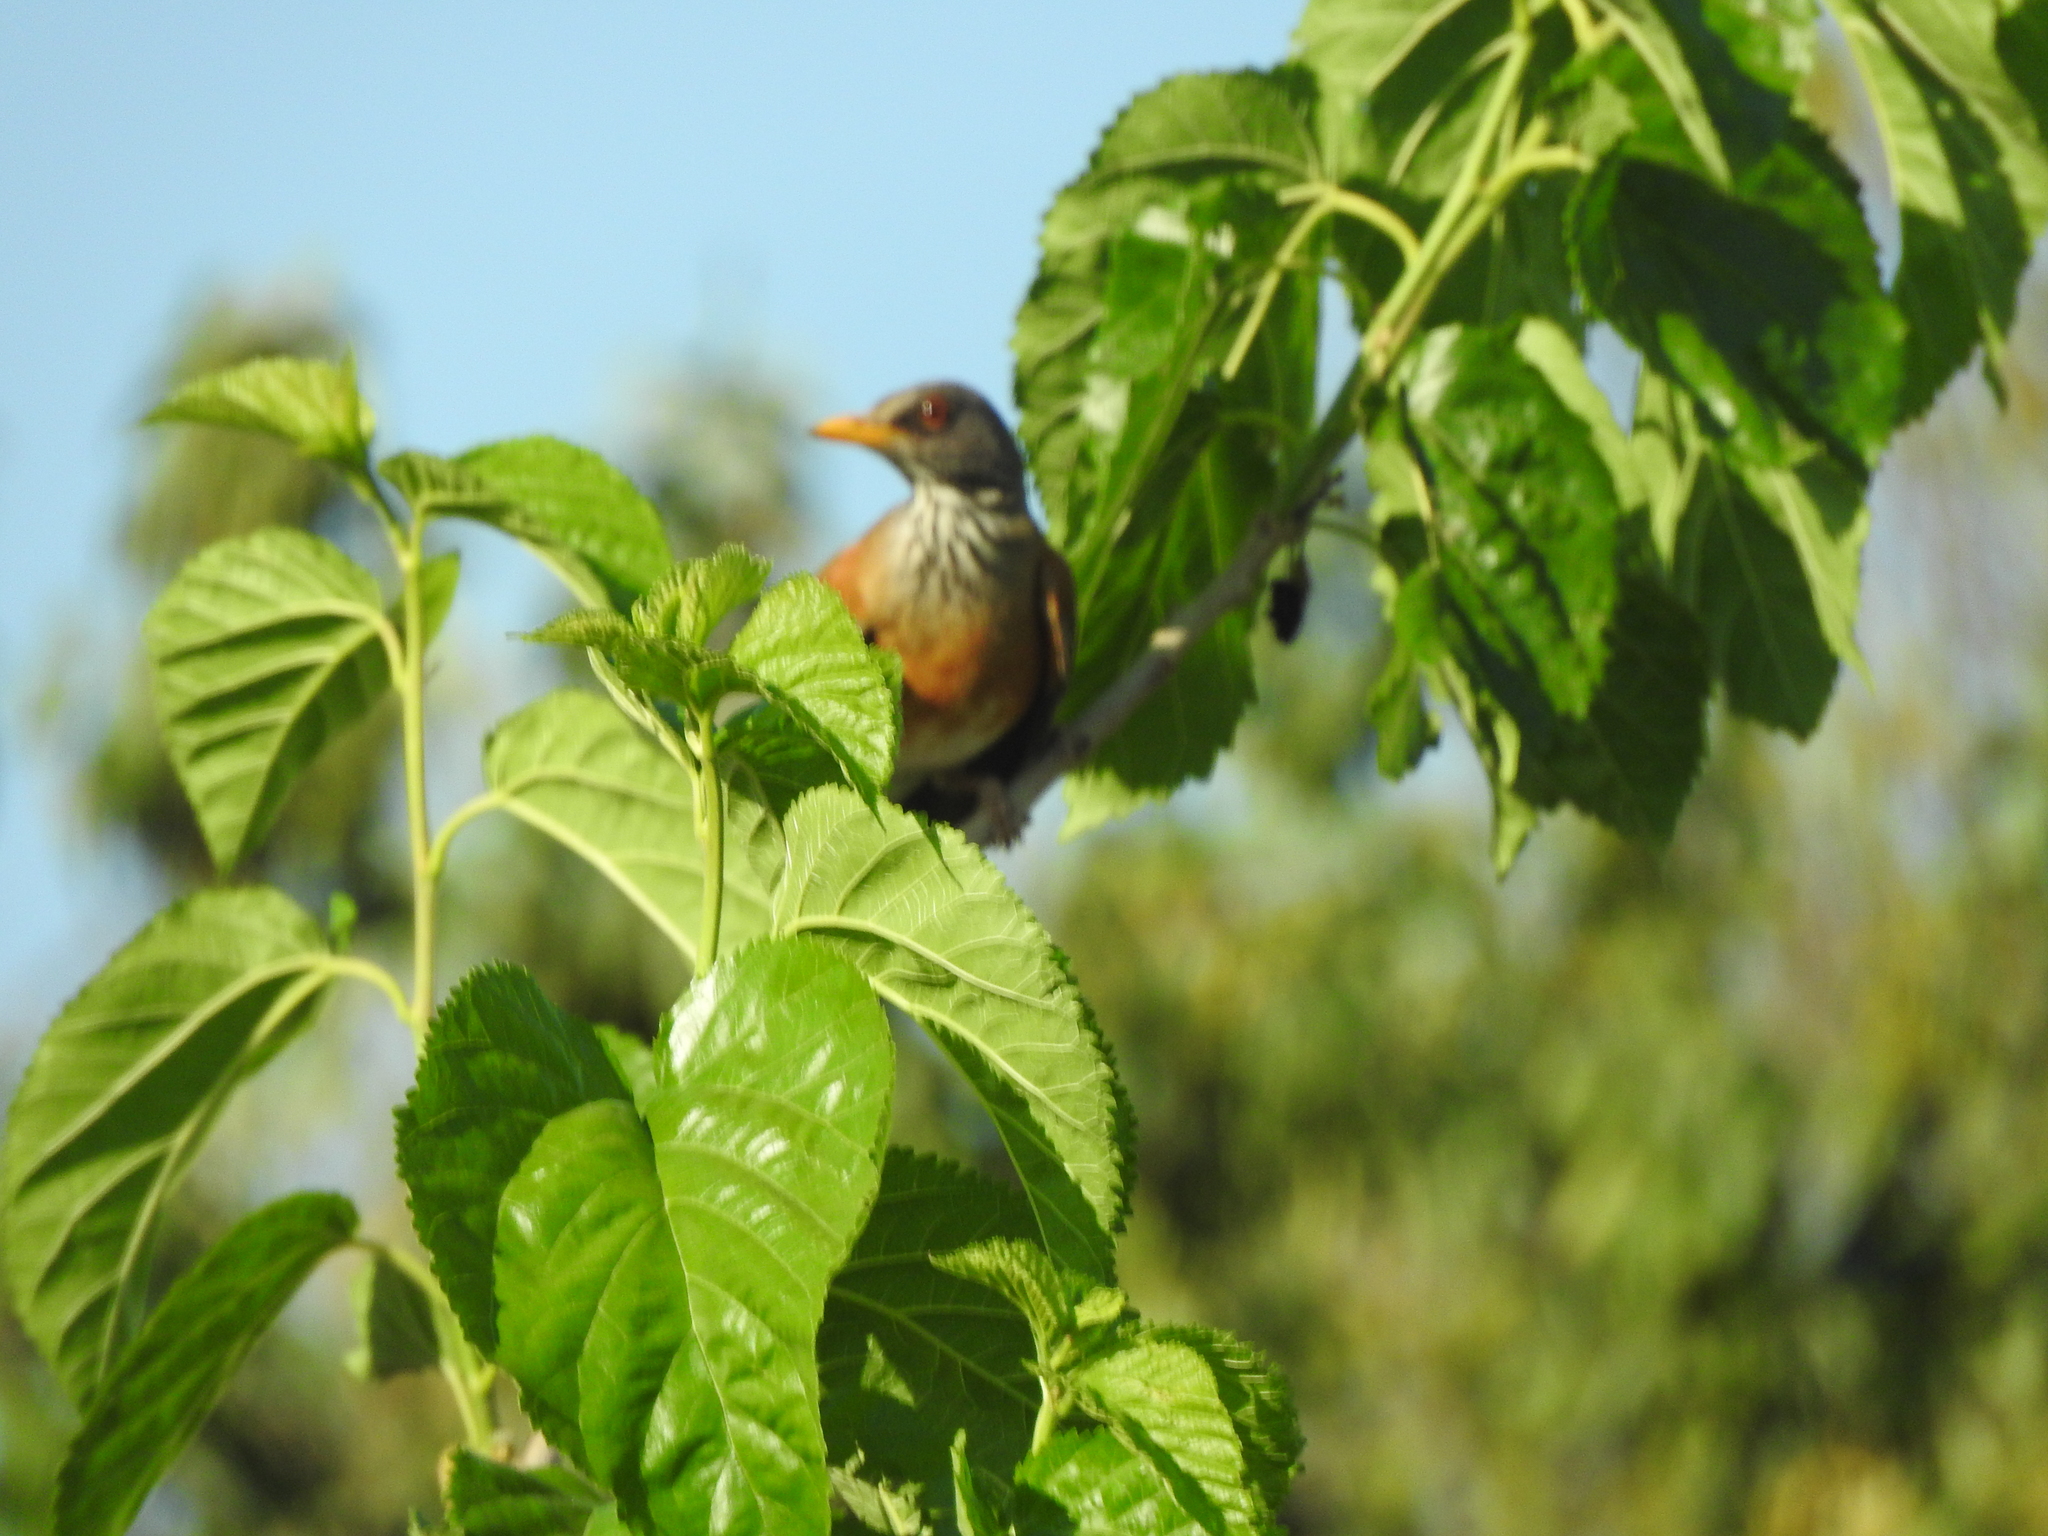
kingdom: Animalia
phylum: Chordata
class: Aves
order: Passeriformes
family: Turdidae
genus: Turdus
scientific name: Turdus rufopalliatus
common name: Rufous-backed robin
